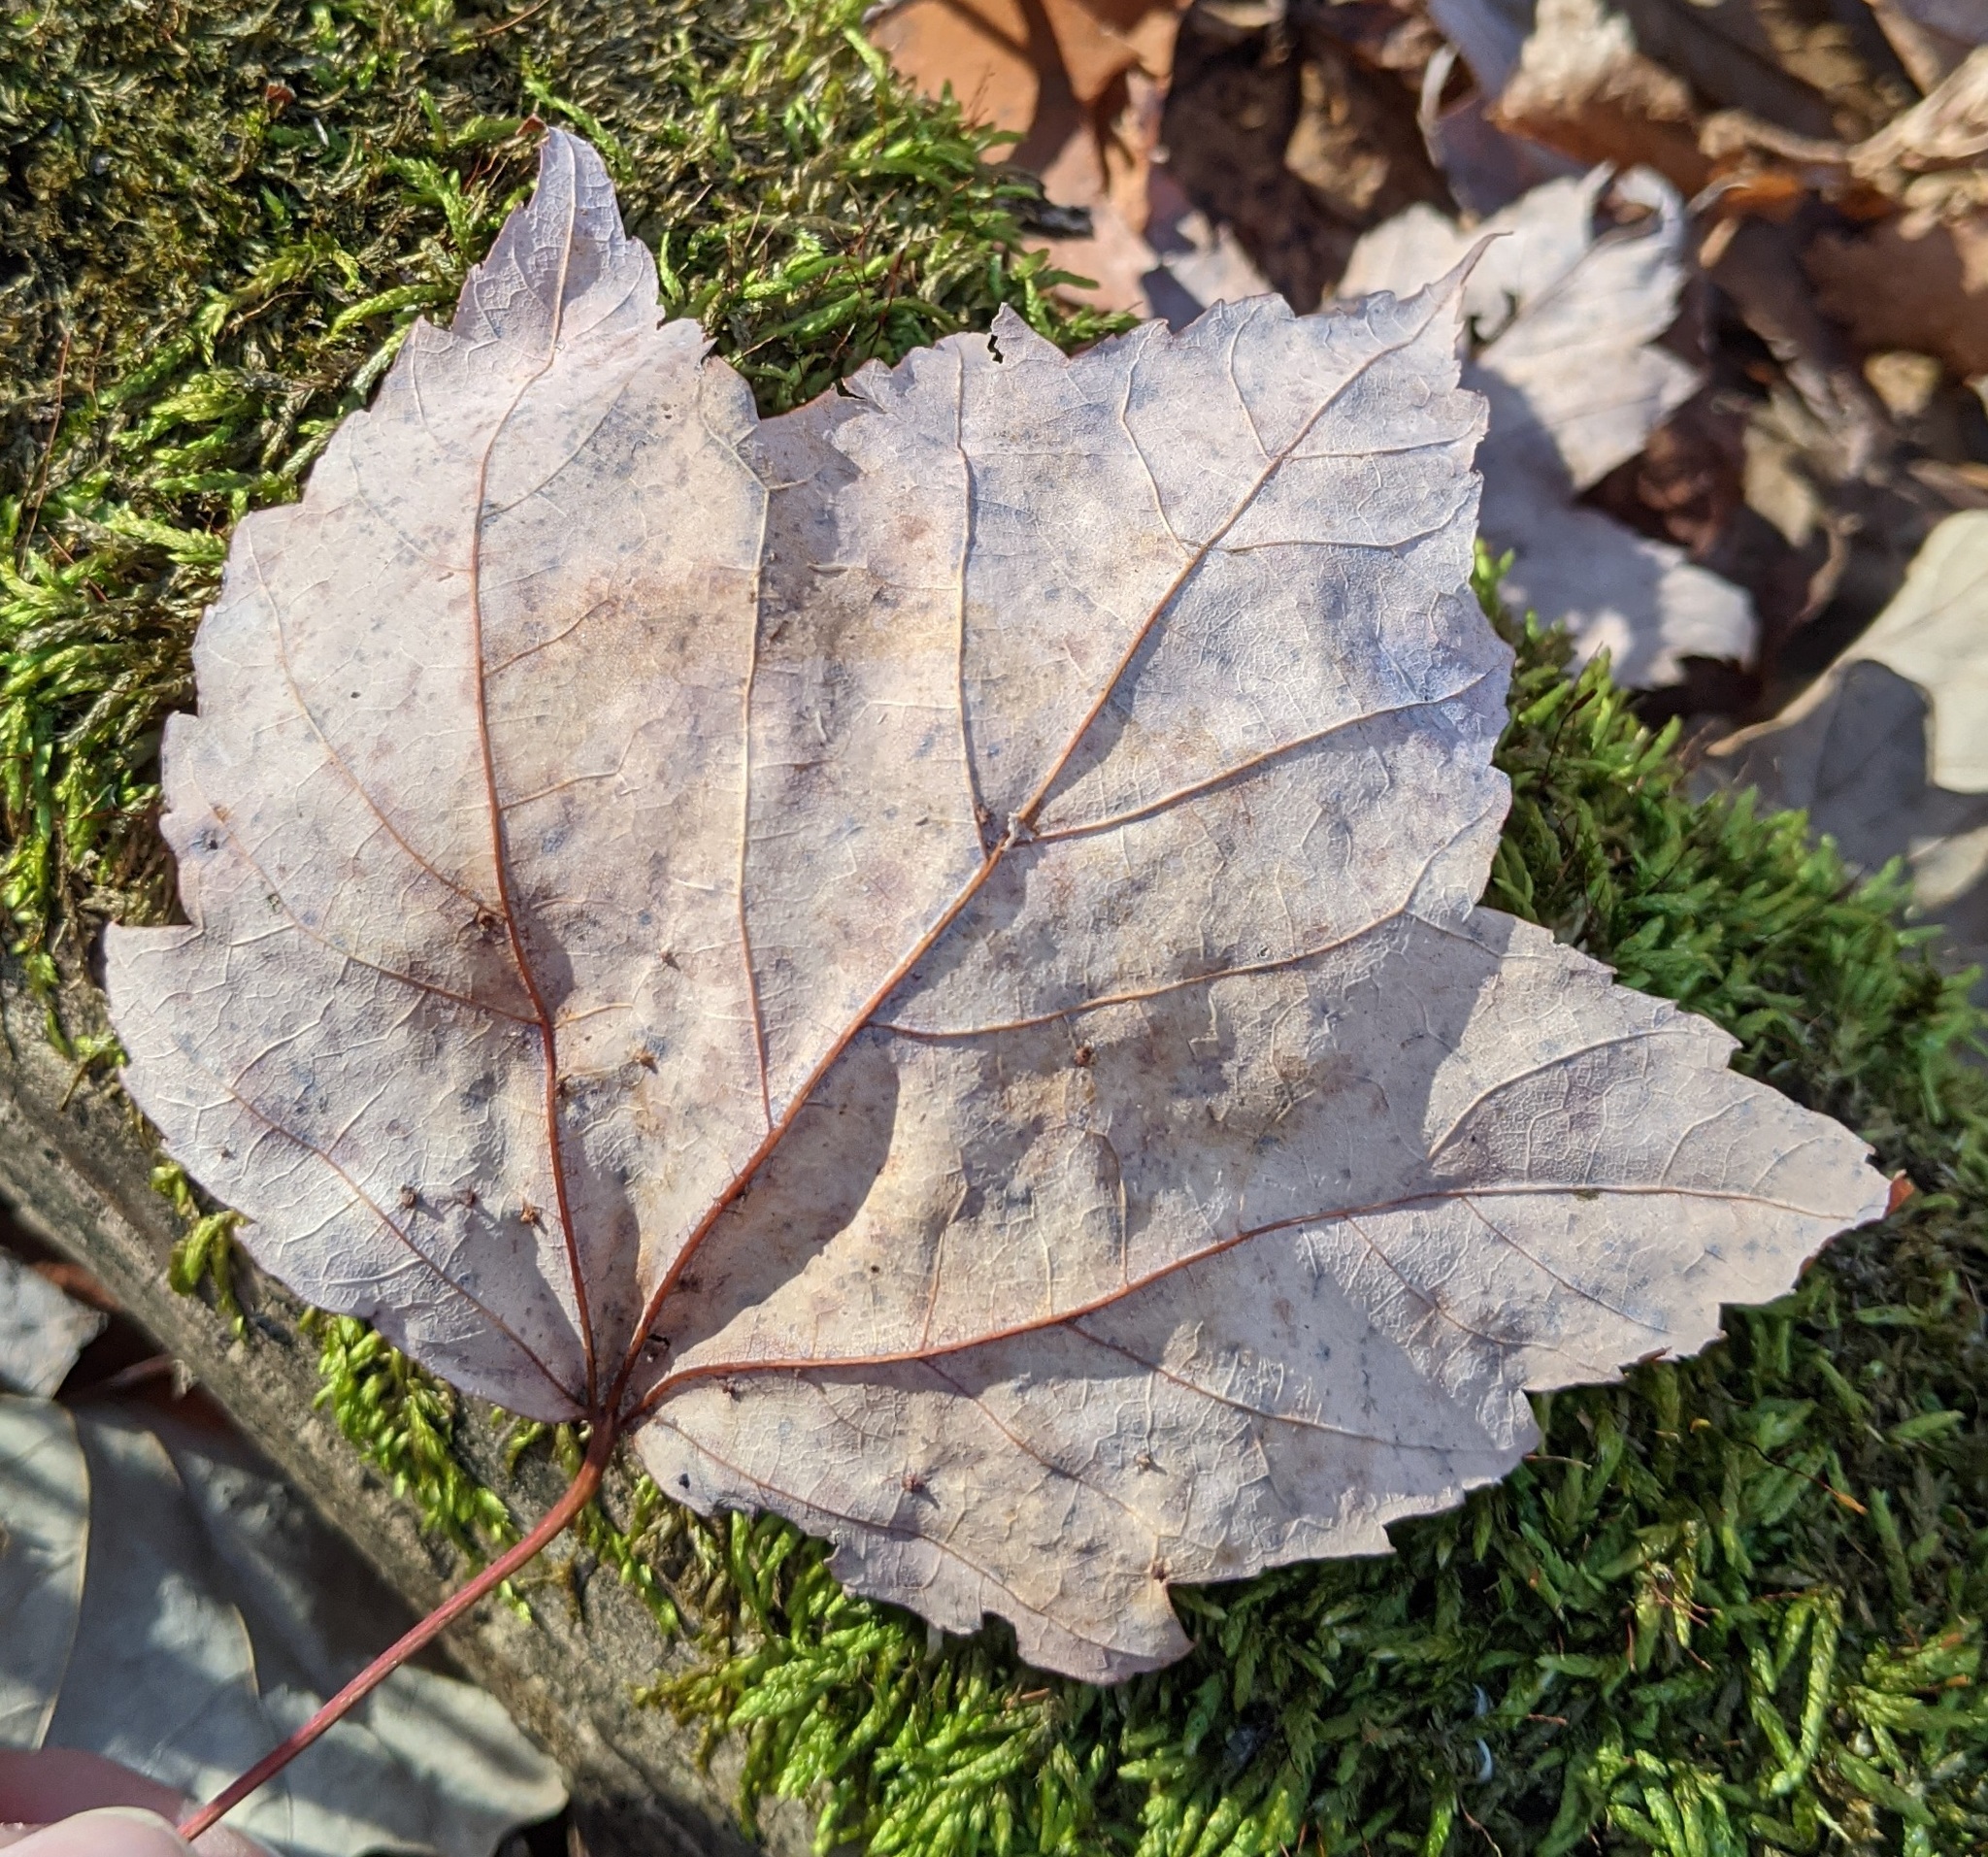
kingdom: Plantae
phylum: Tracheophyta
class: Magnoliopsida
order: Sapindales
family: Sapindaceae
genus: Acer
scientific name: Acer rubrum
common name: Red maple
